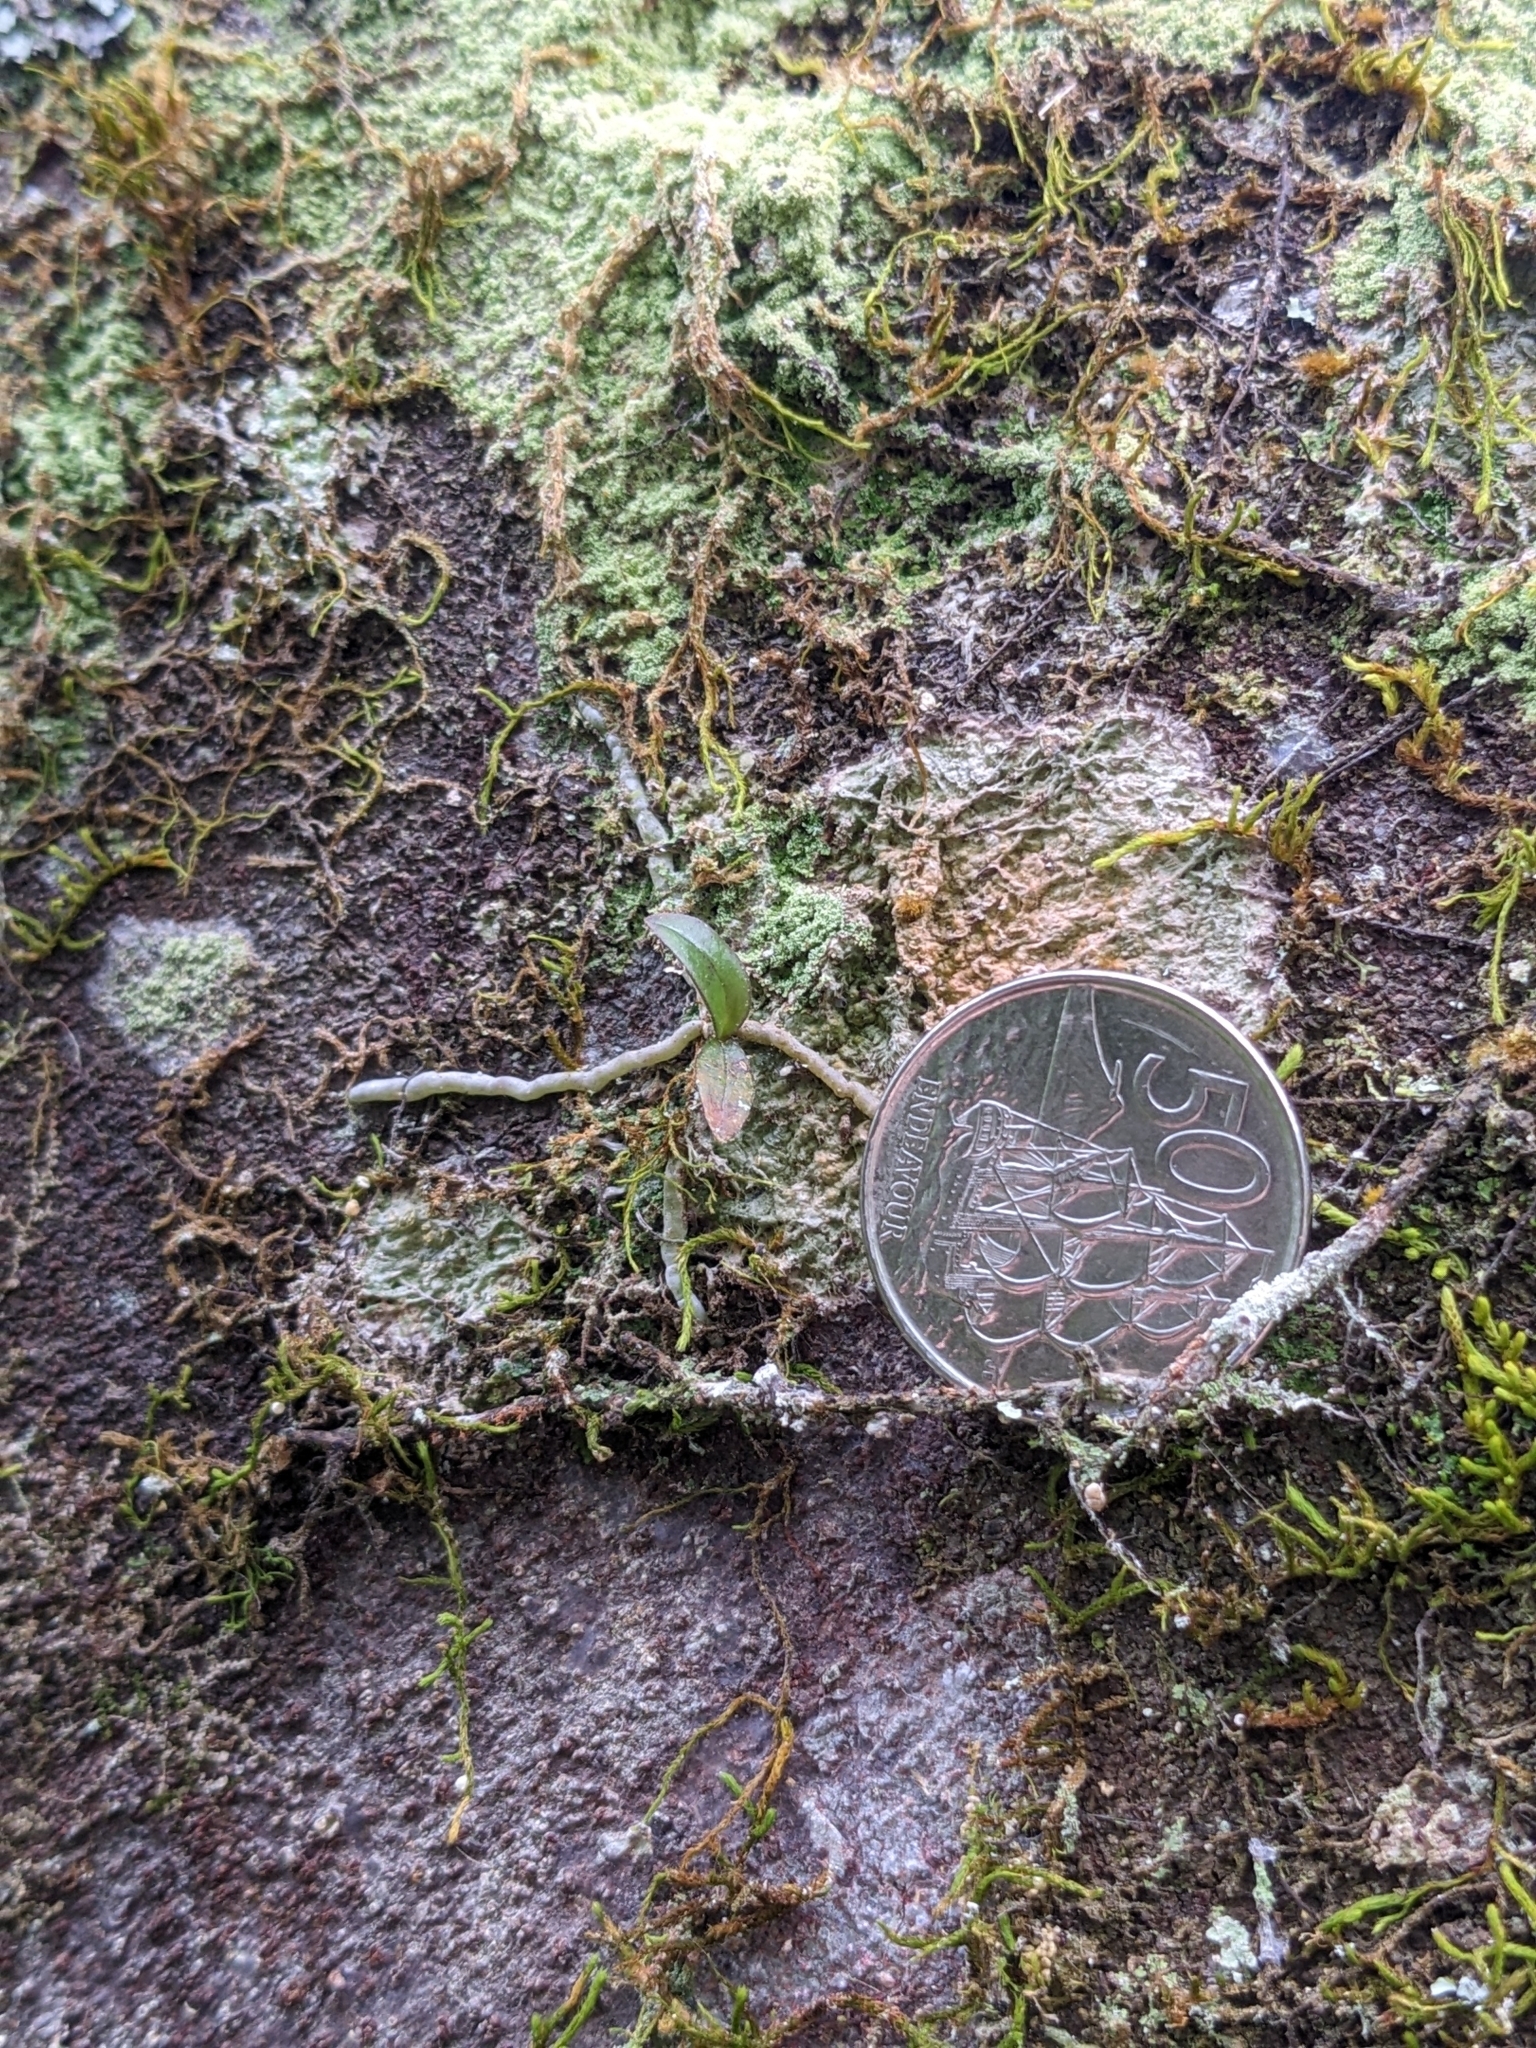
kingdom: Plantae
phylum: Tracheophyta
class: Liliopsida
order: Asparagales
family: Orchidaceae
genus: Drymoanthus
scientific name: Drymoanthus adversus
